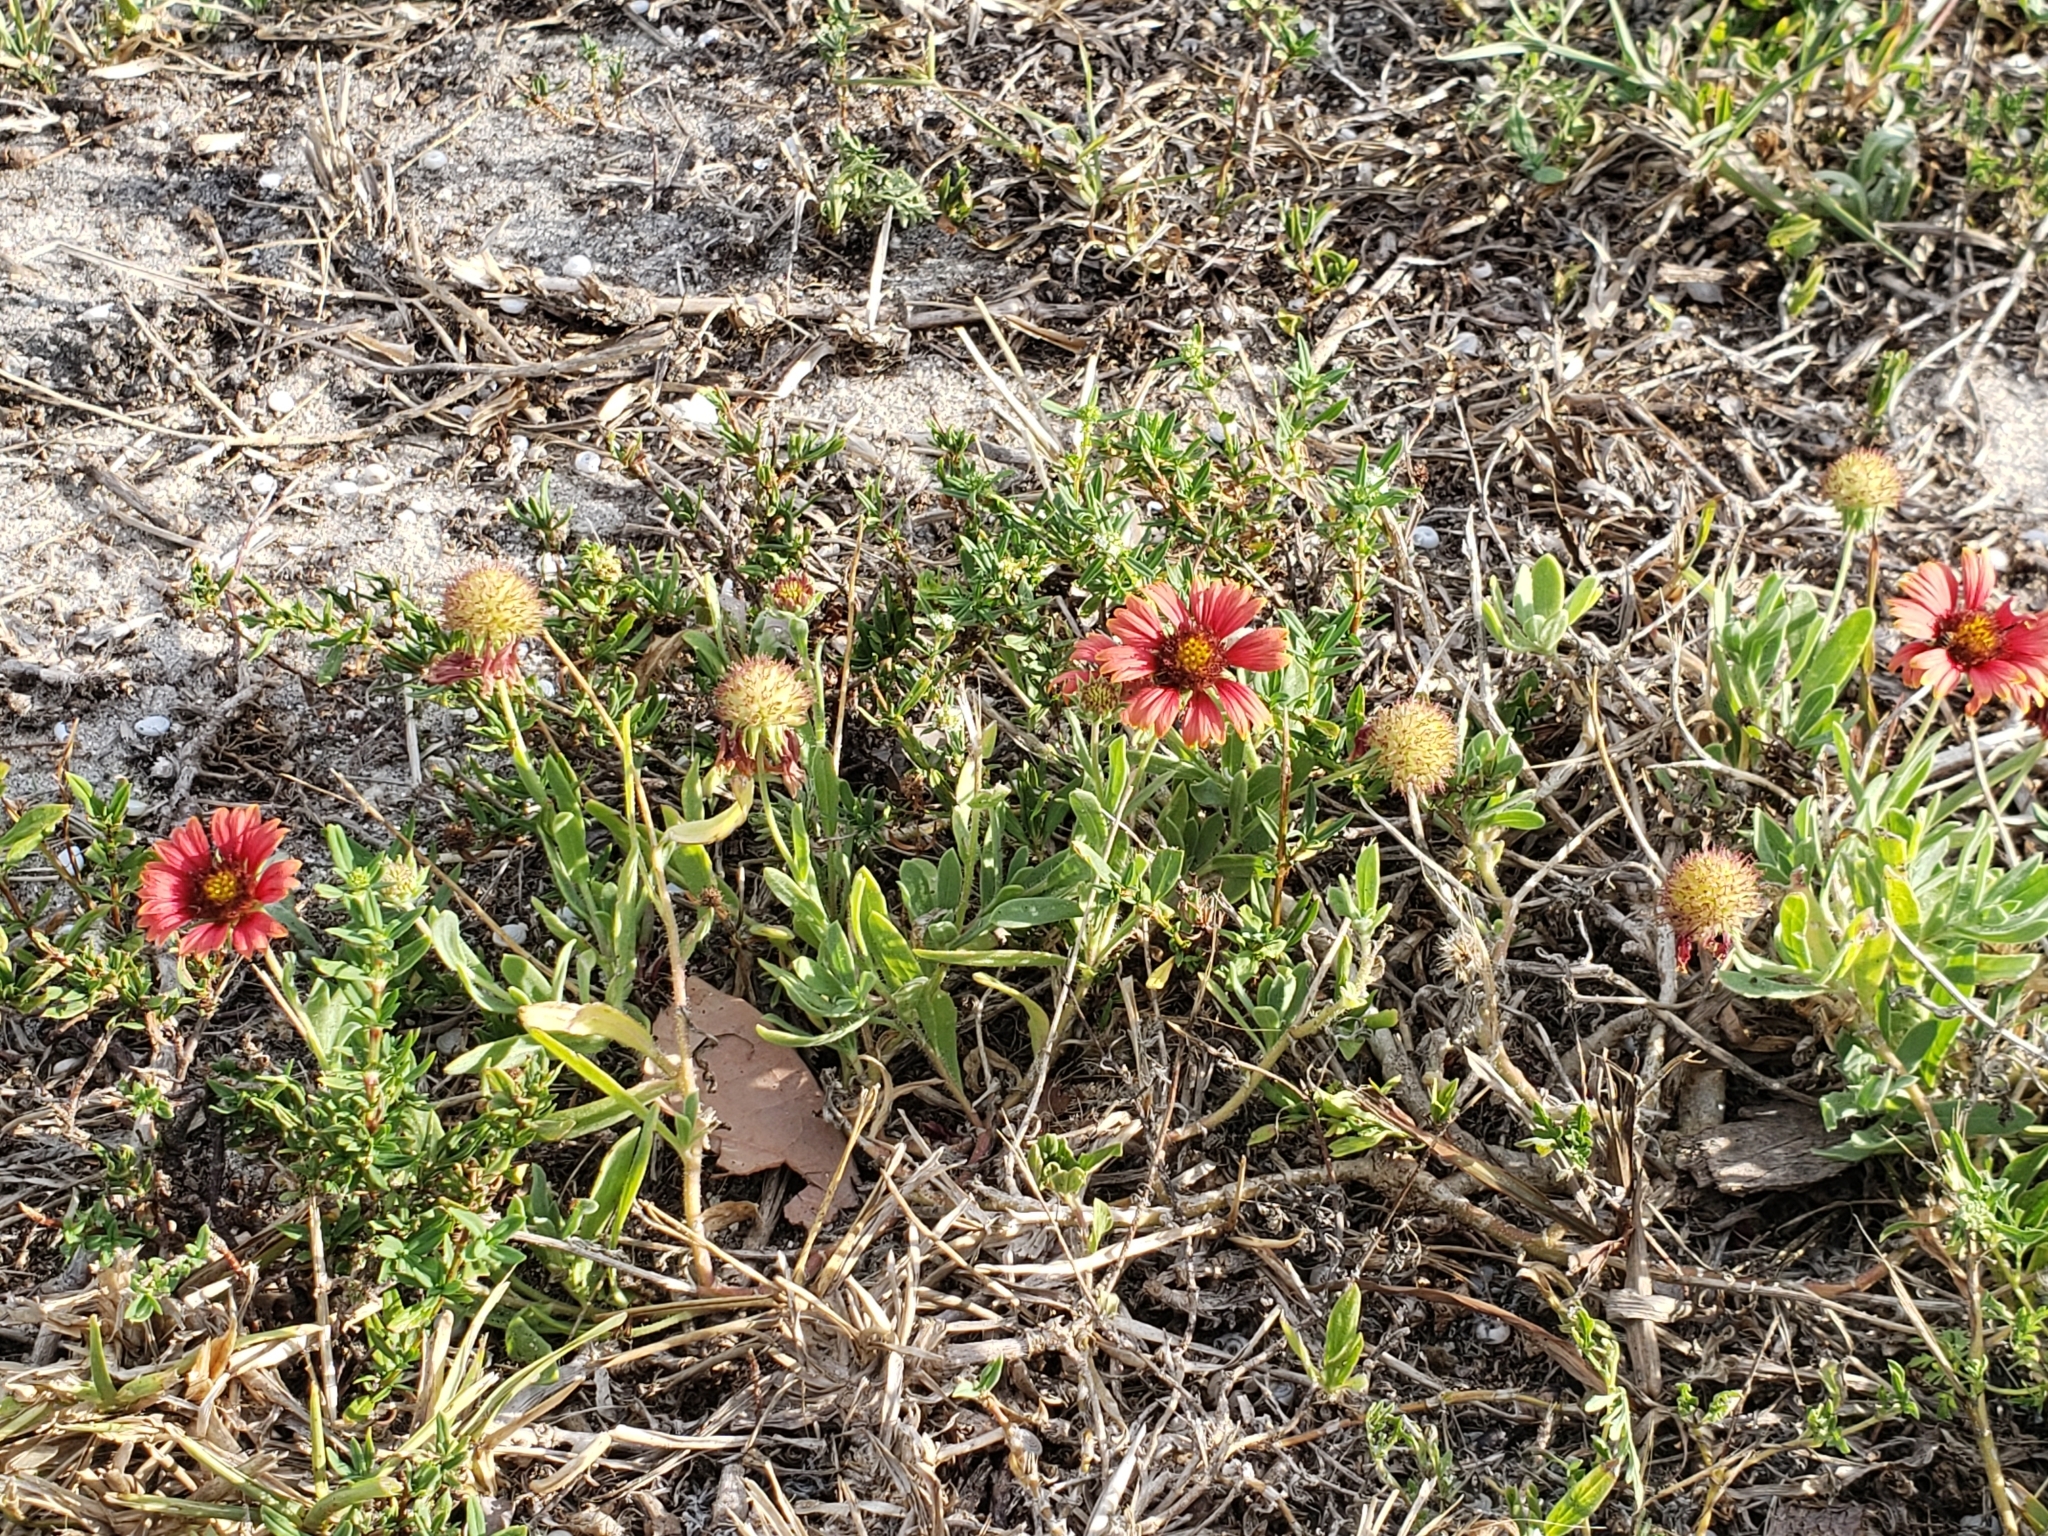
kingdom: Plantae
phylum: Tracheophyta
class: Magnoliopsida
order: Asterales
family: Asteraceae
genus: Gaillardia
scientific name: Gaillardia pulchella
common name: Firewheel
